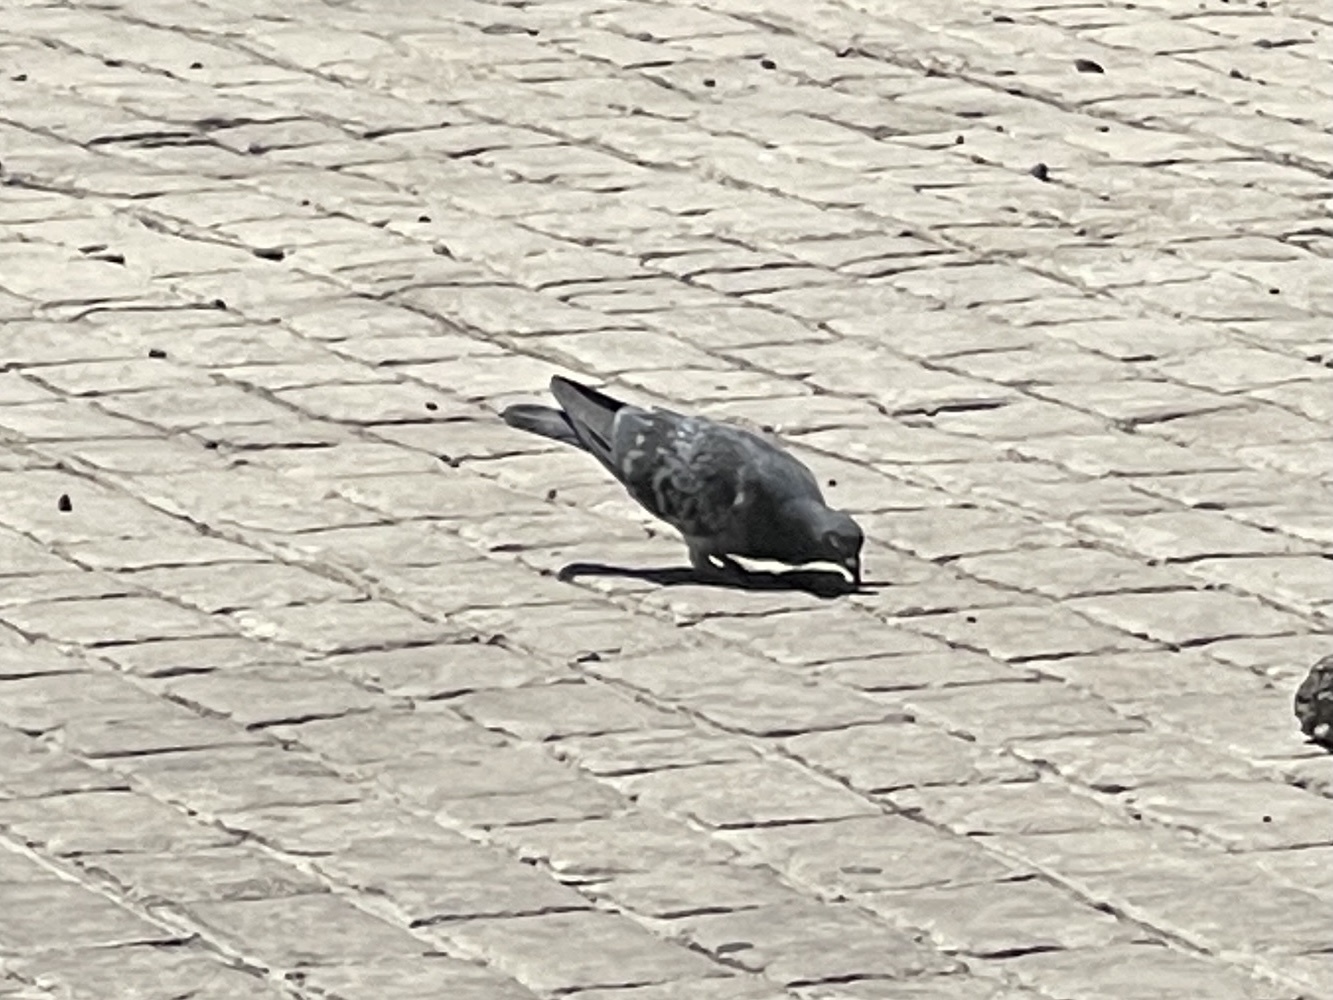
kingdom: Animalia
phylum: Chordata
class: Aves
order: Columbiformes
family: Columbidae
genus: Columba
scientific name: Columba livia
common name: Rock pigeon
